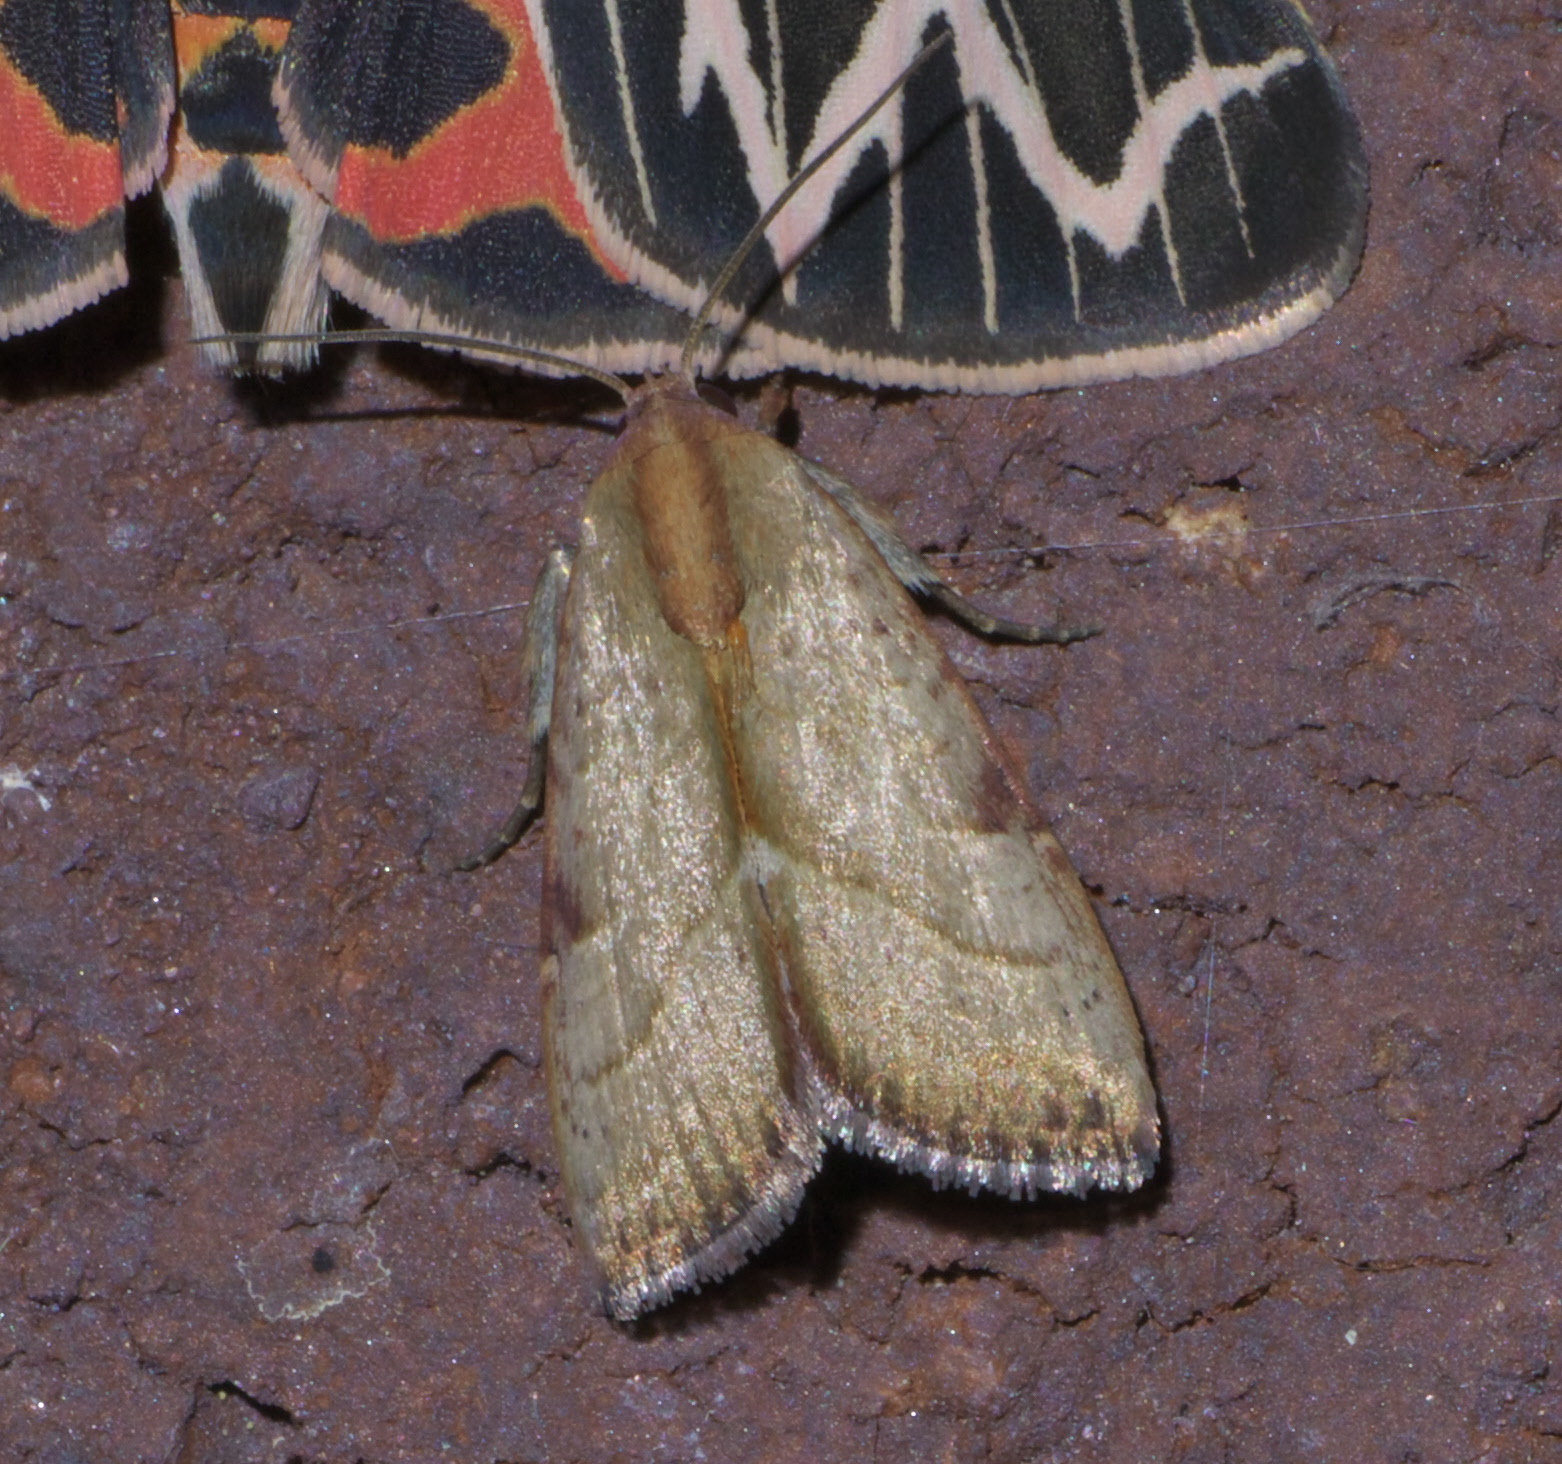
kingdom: Animalia
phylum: Arthropoda
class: Insecta
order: Lepidoptera
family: Noctuidae
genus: Galgula
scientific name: Galgula partita
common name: Wedgeling
